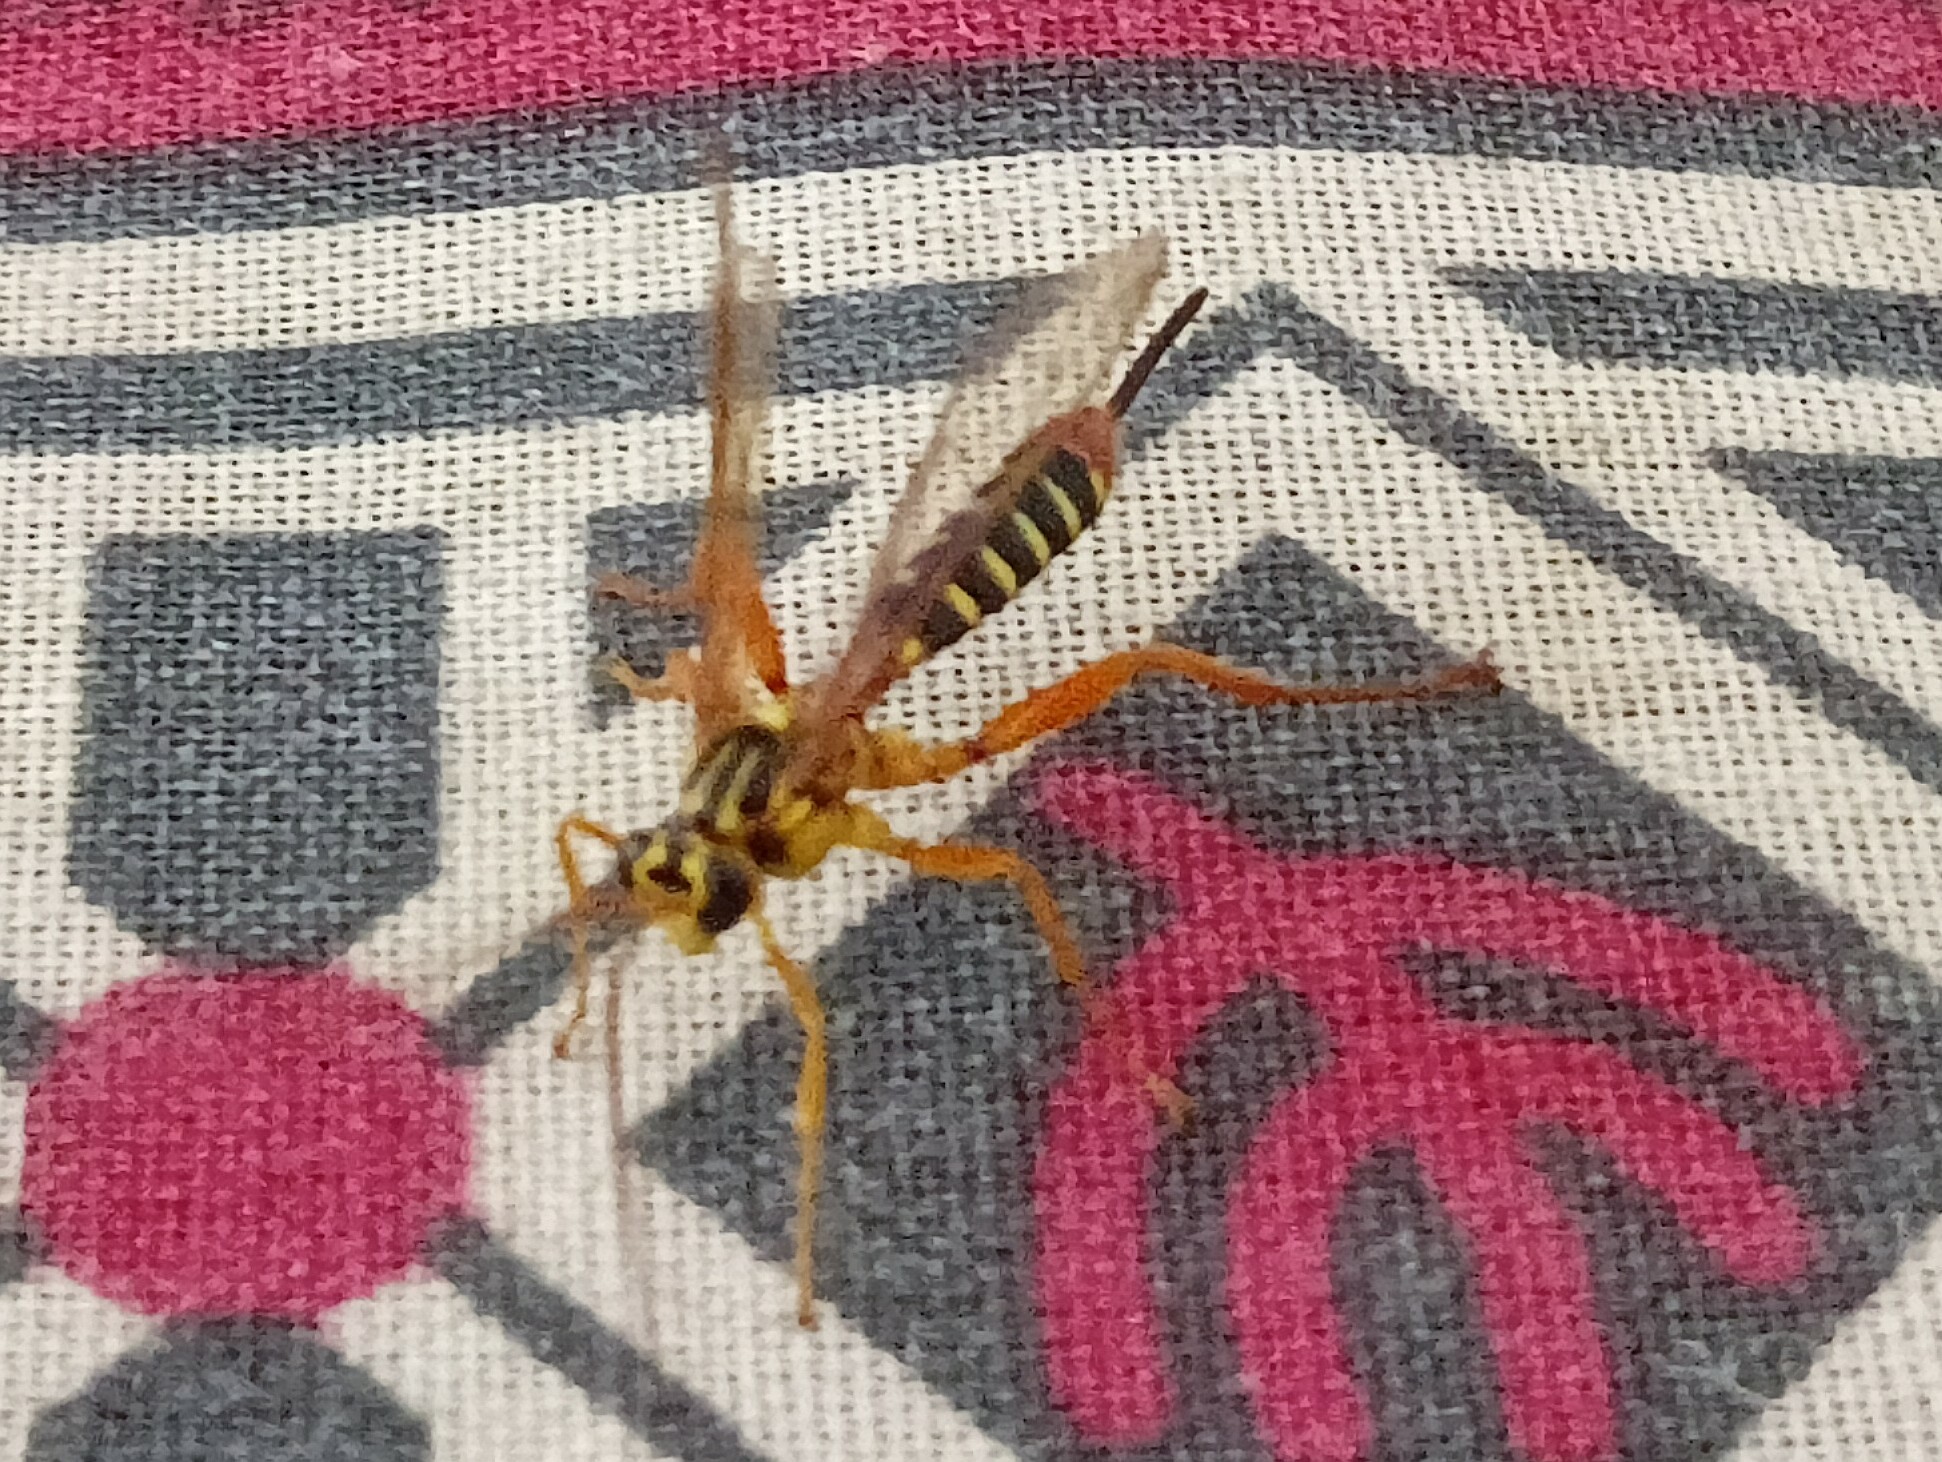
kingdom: Animalia
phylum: Arthropoda
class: Insecta
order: Hymenoptera
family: Ichneumonidae
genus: Echthromorpha
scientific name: Echthromorpha agrestoria
